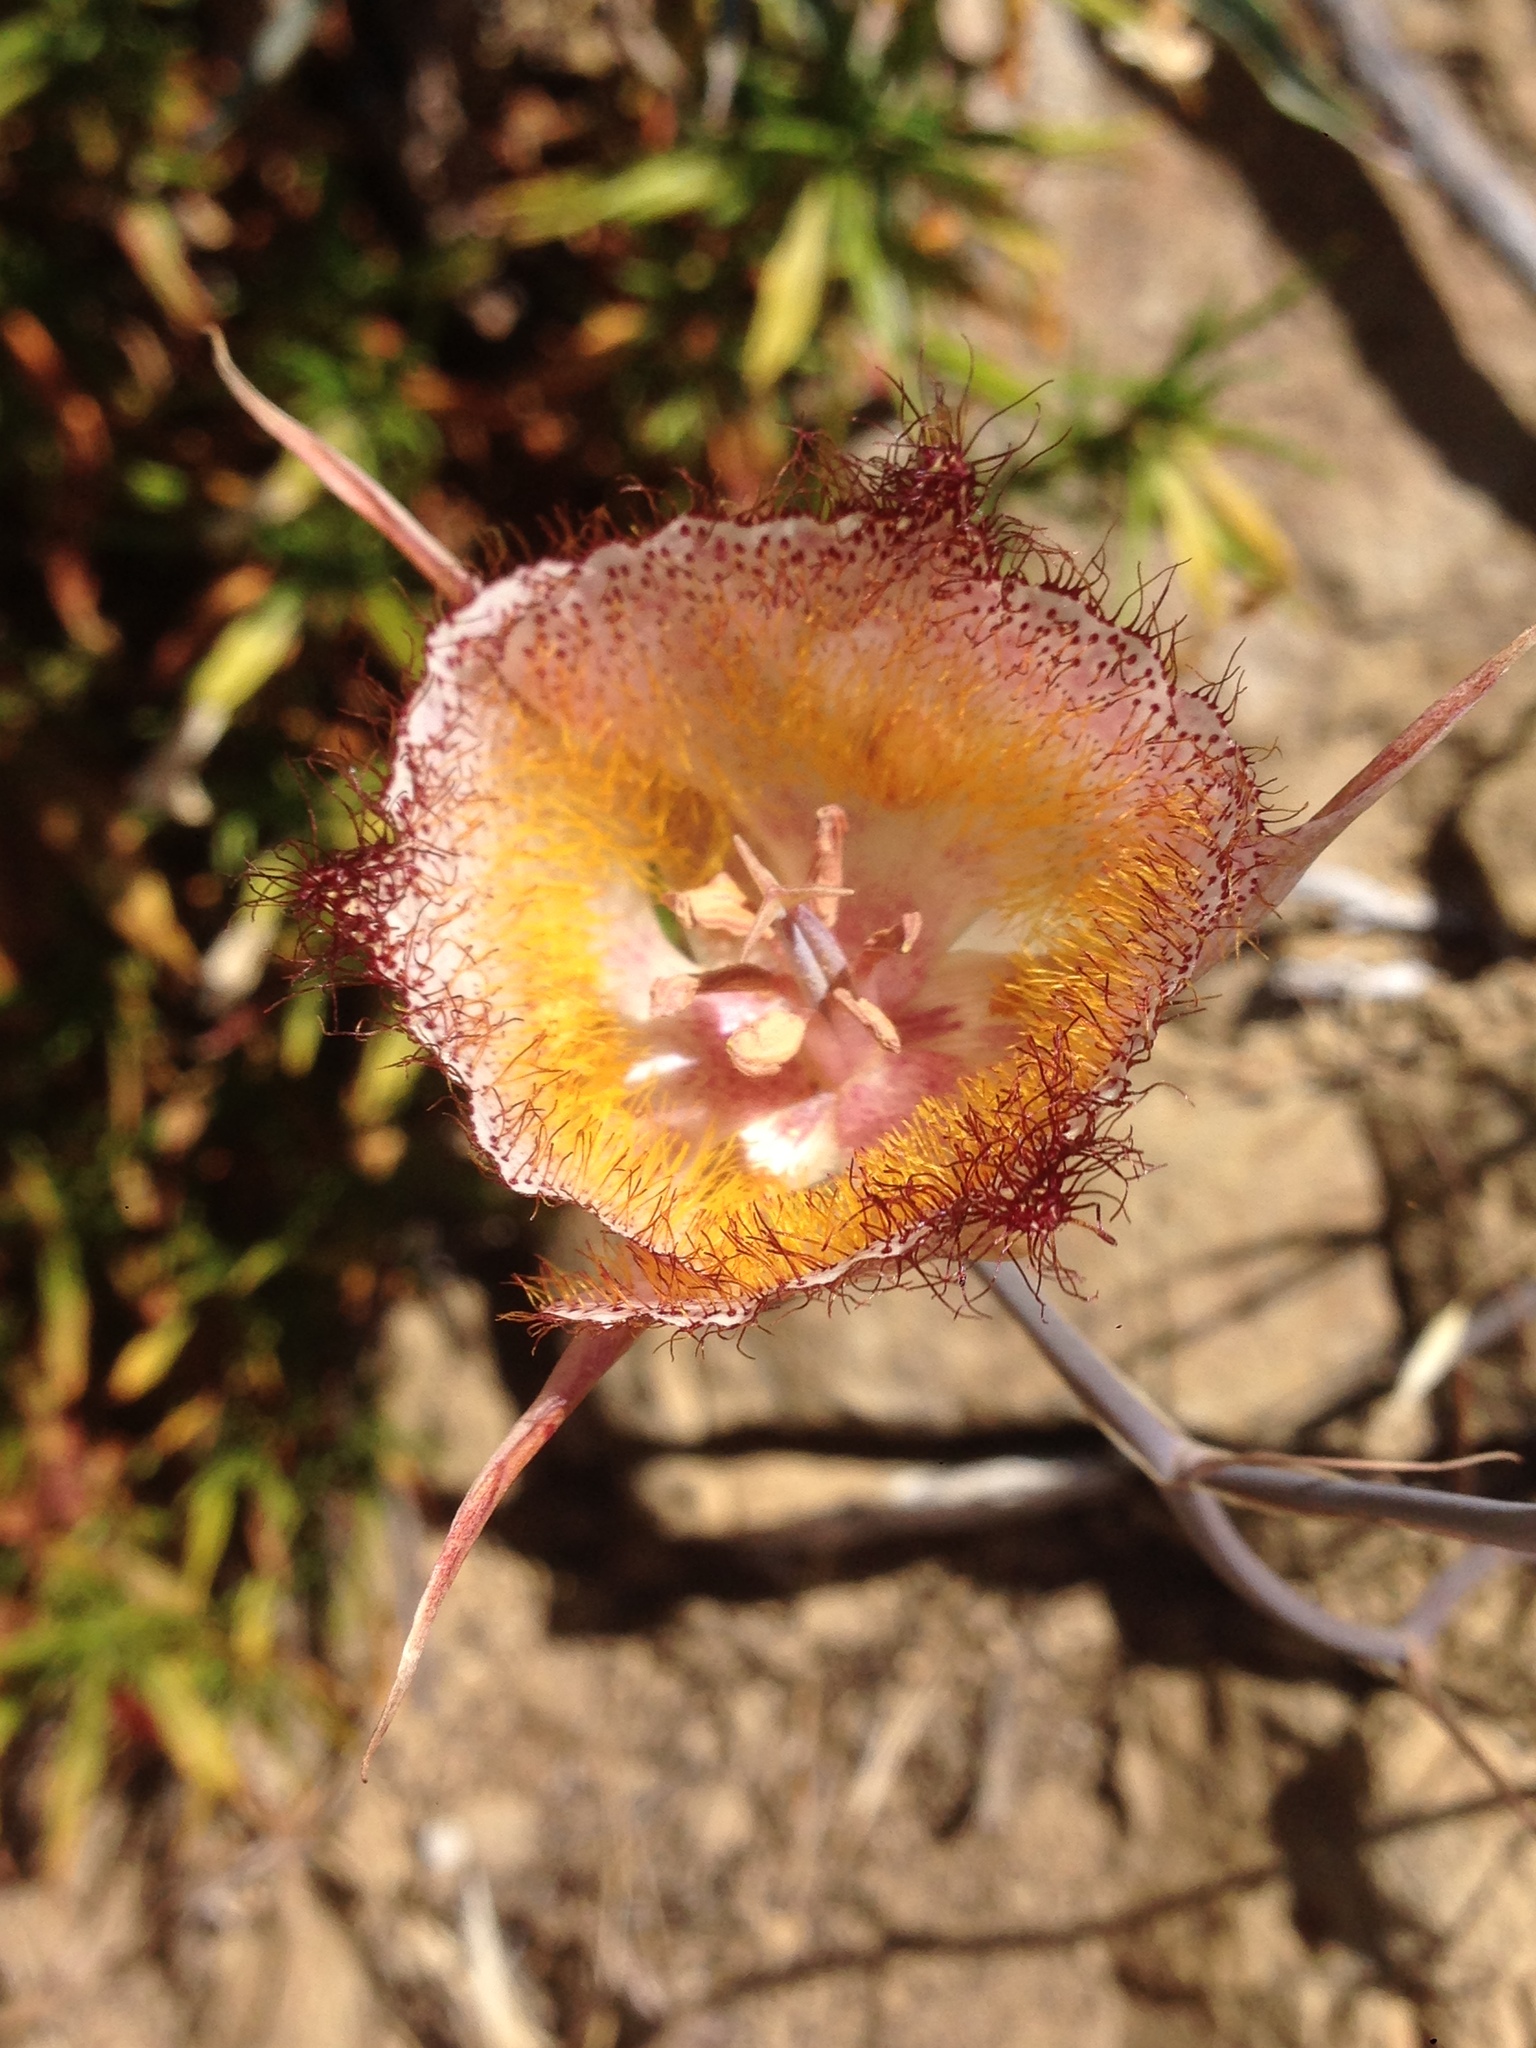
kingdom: Plantae
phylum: Tracheophyta
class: Liliopsida
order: Liliales
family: Liliaceae
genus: Calochortus
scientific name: Calochortus fimbriatus
